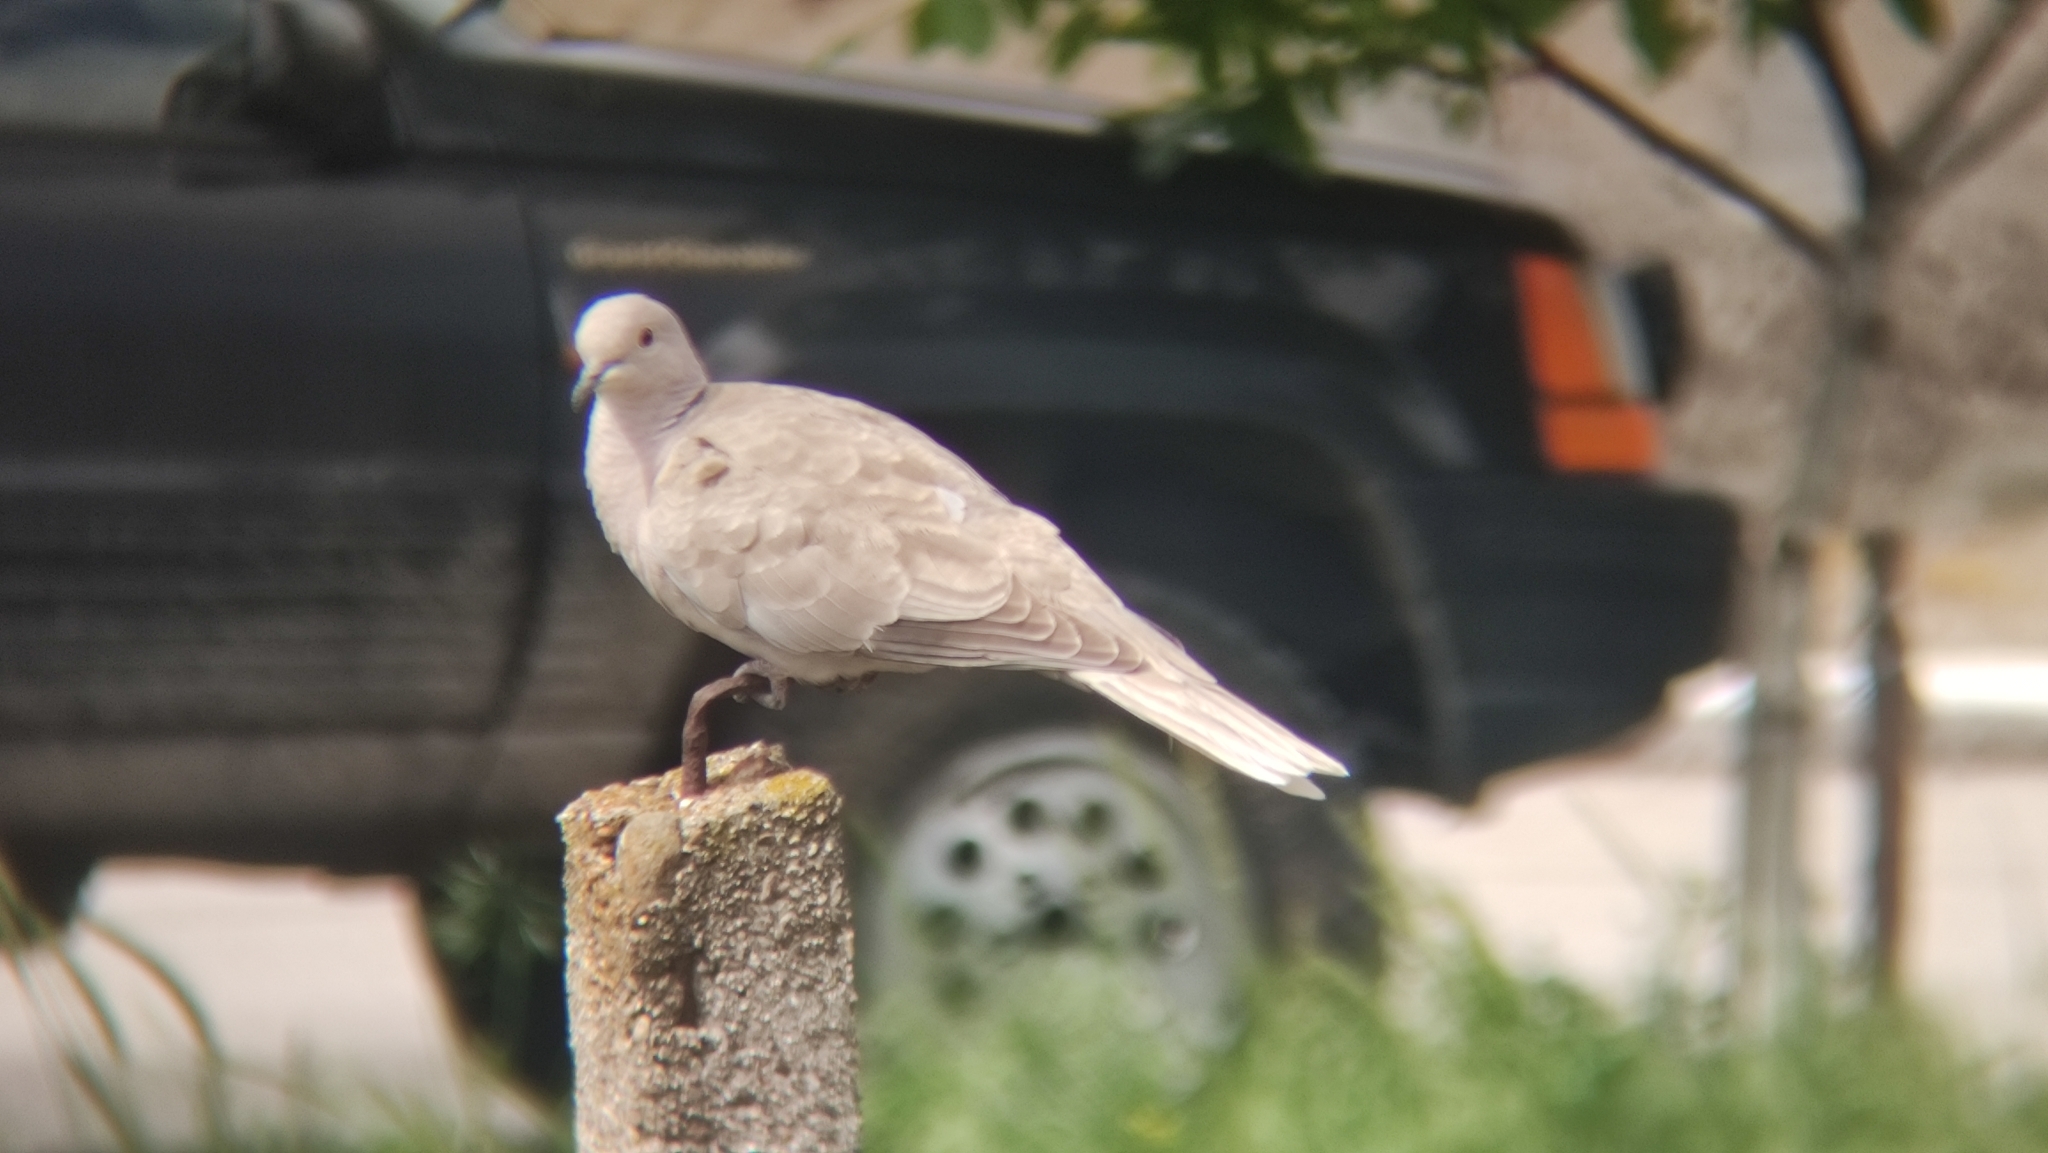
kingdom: Animalia
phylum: Chordata
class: Aves
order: Columbiformes
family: Columbidae
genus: Streptopelia
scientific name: Streptopelia decaocto
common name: Eurasian collared dove
